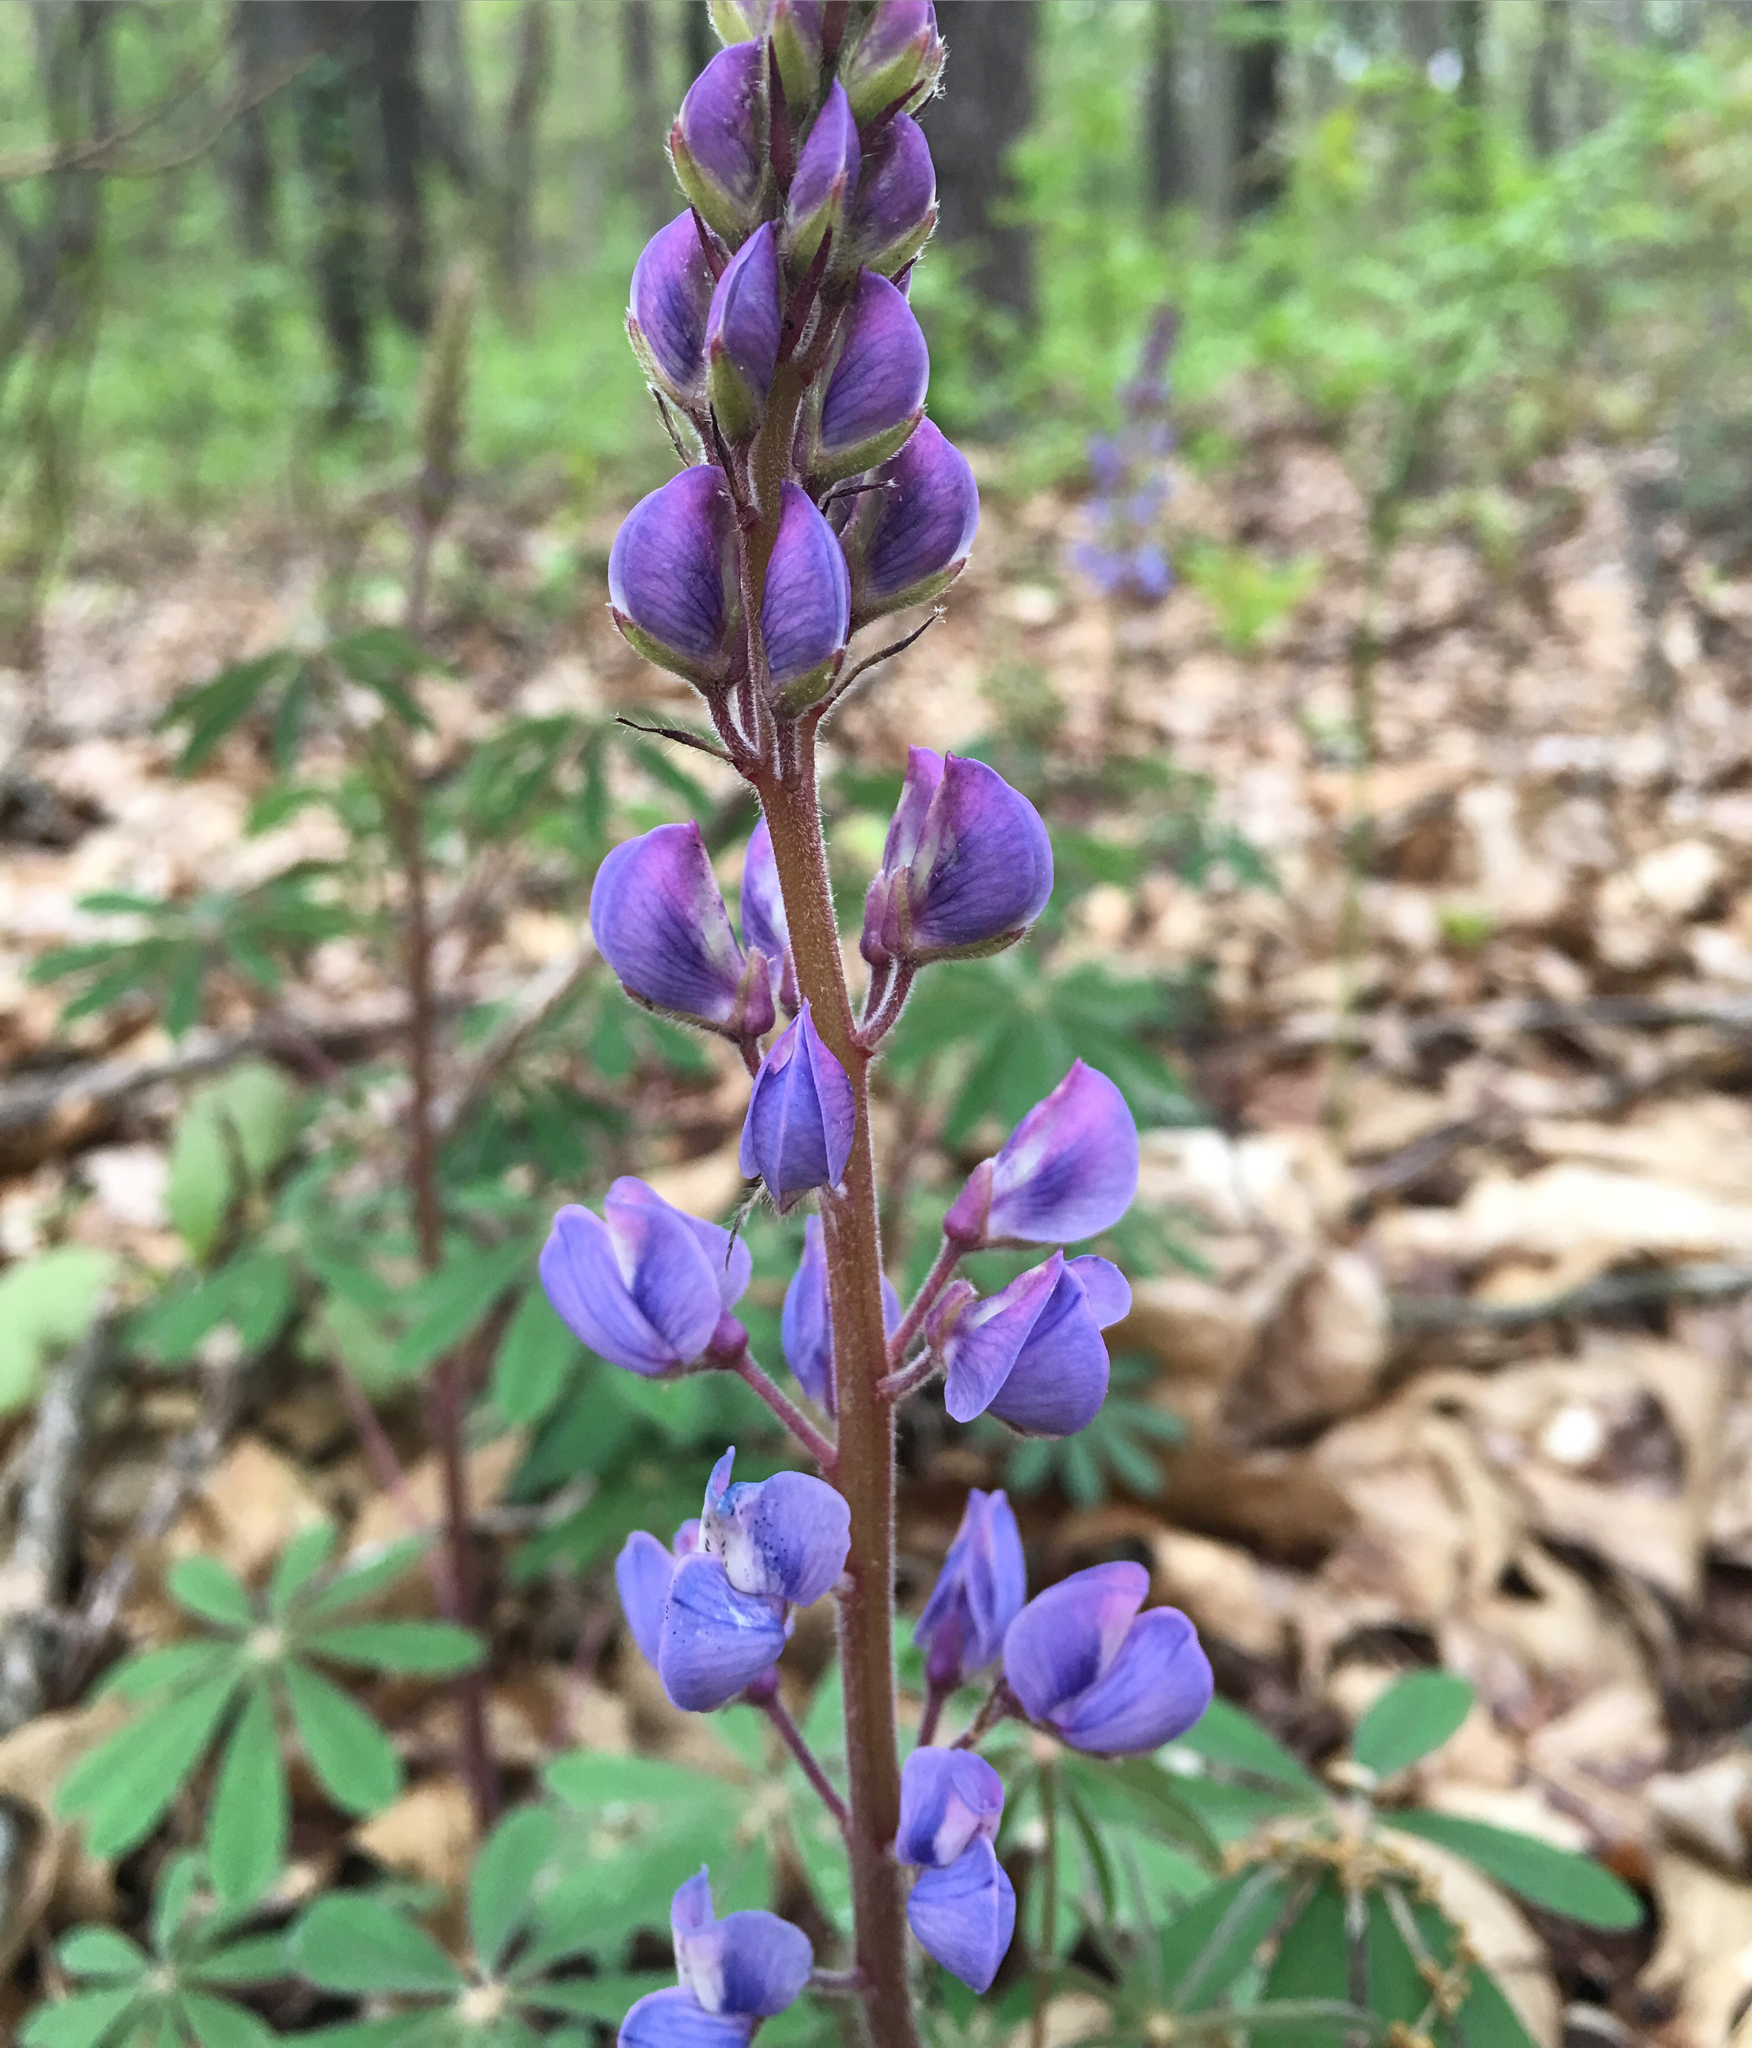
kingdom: Plantae
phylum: Tracheophyta
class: Magnoliopsida
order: Fabales
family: Fabaceae
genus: Lupinus
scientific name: Lupinus perennis
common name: Sundial lupine
